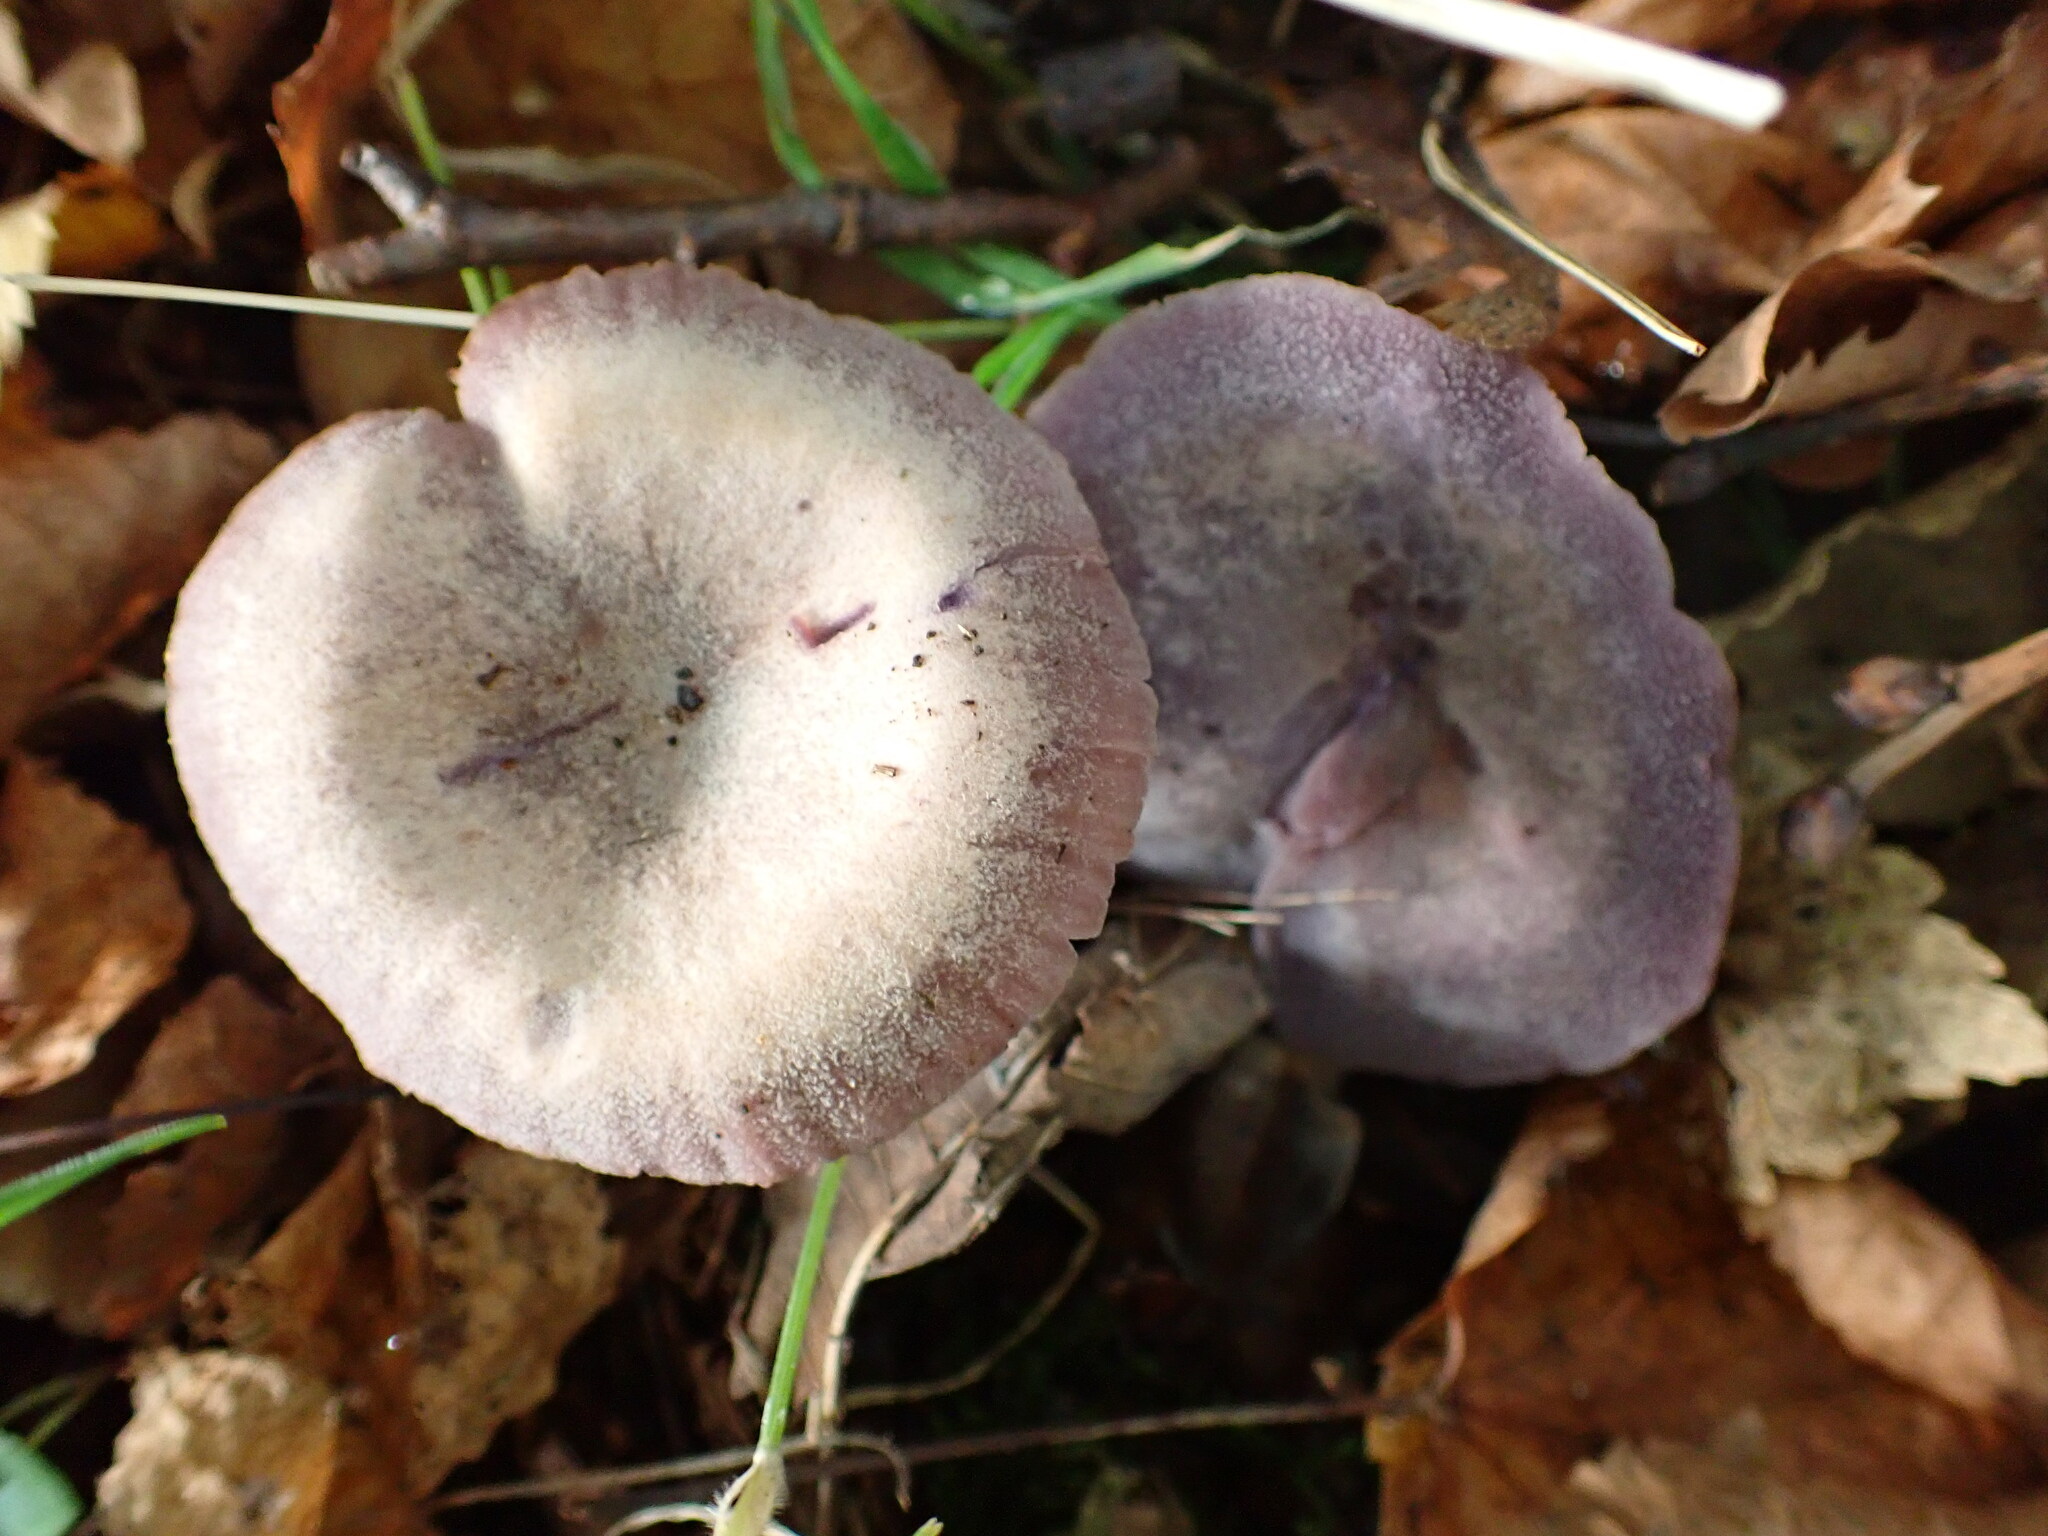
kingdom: Fungi
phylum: Basidiomycota
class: Agaricomycetes
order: Agaricales
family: Hydnangiaceae
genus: Laccaria
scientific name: Laccaria amethystina
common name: Amethyst deceiver
